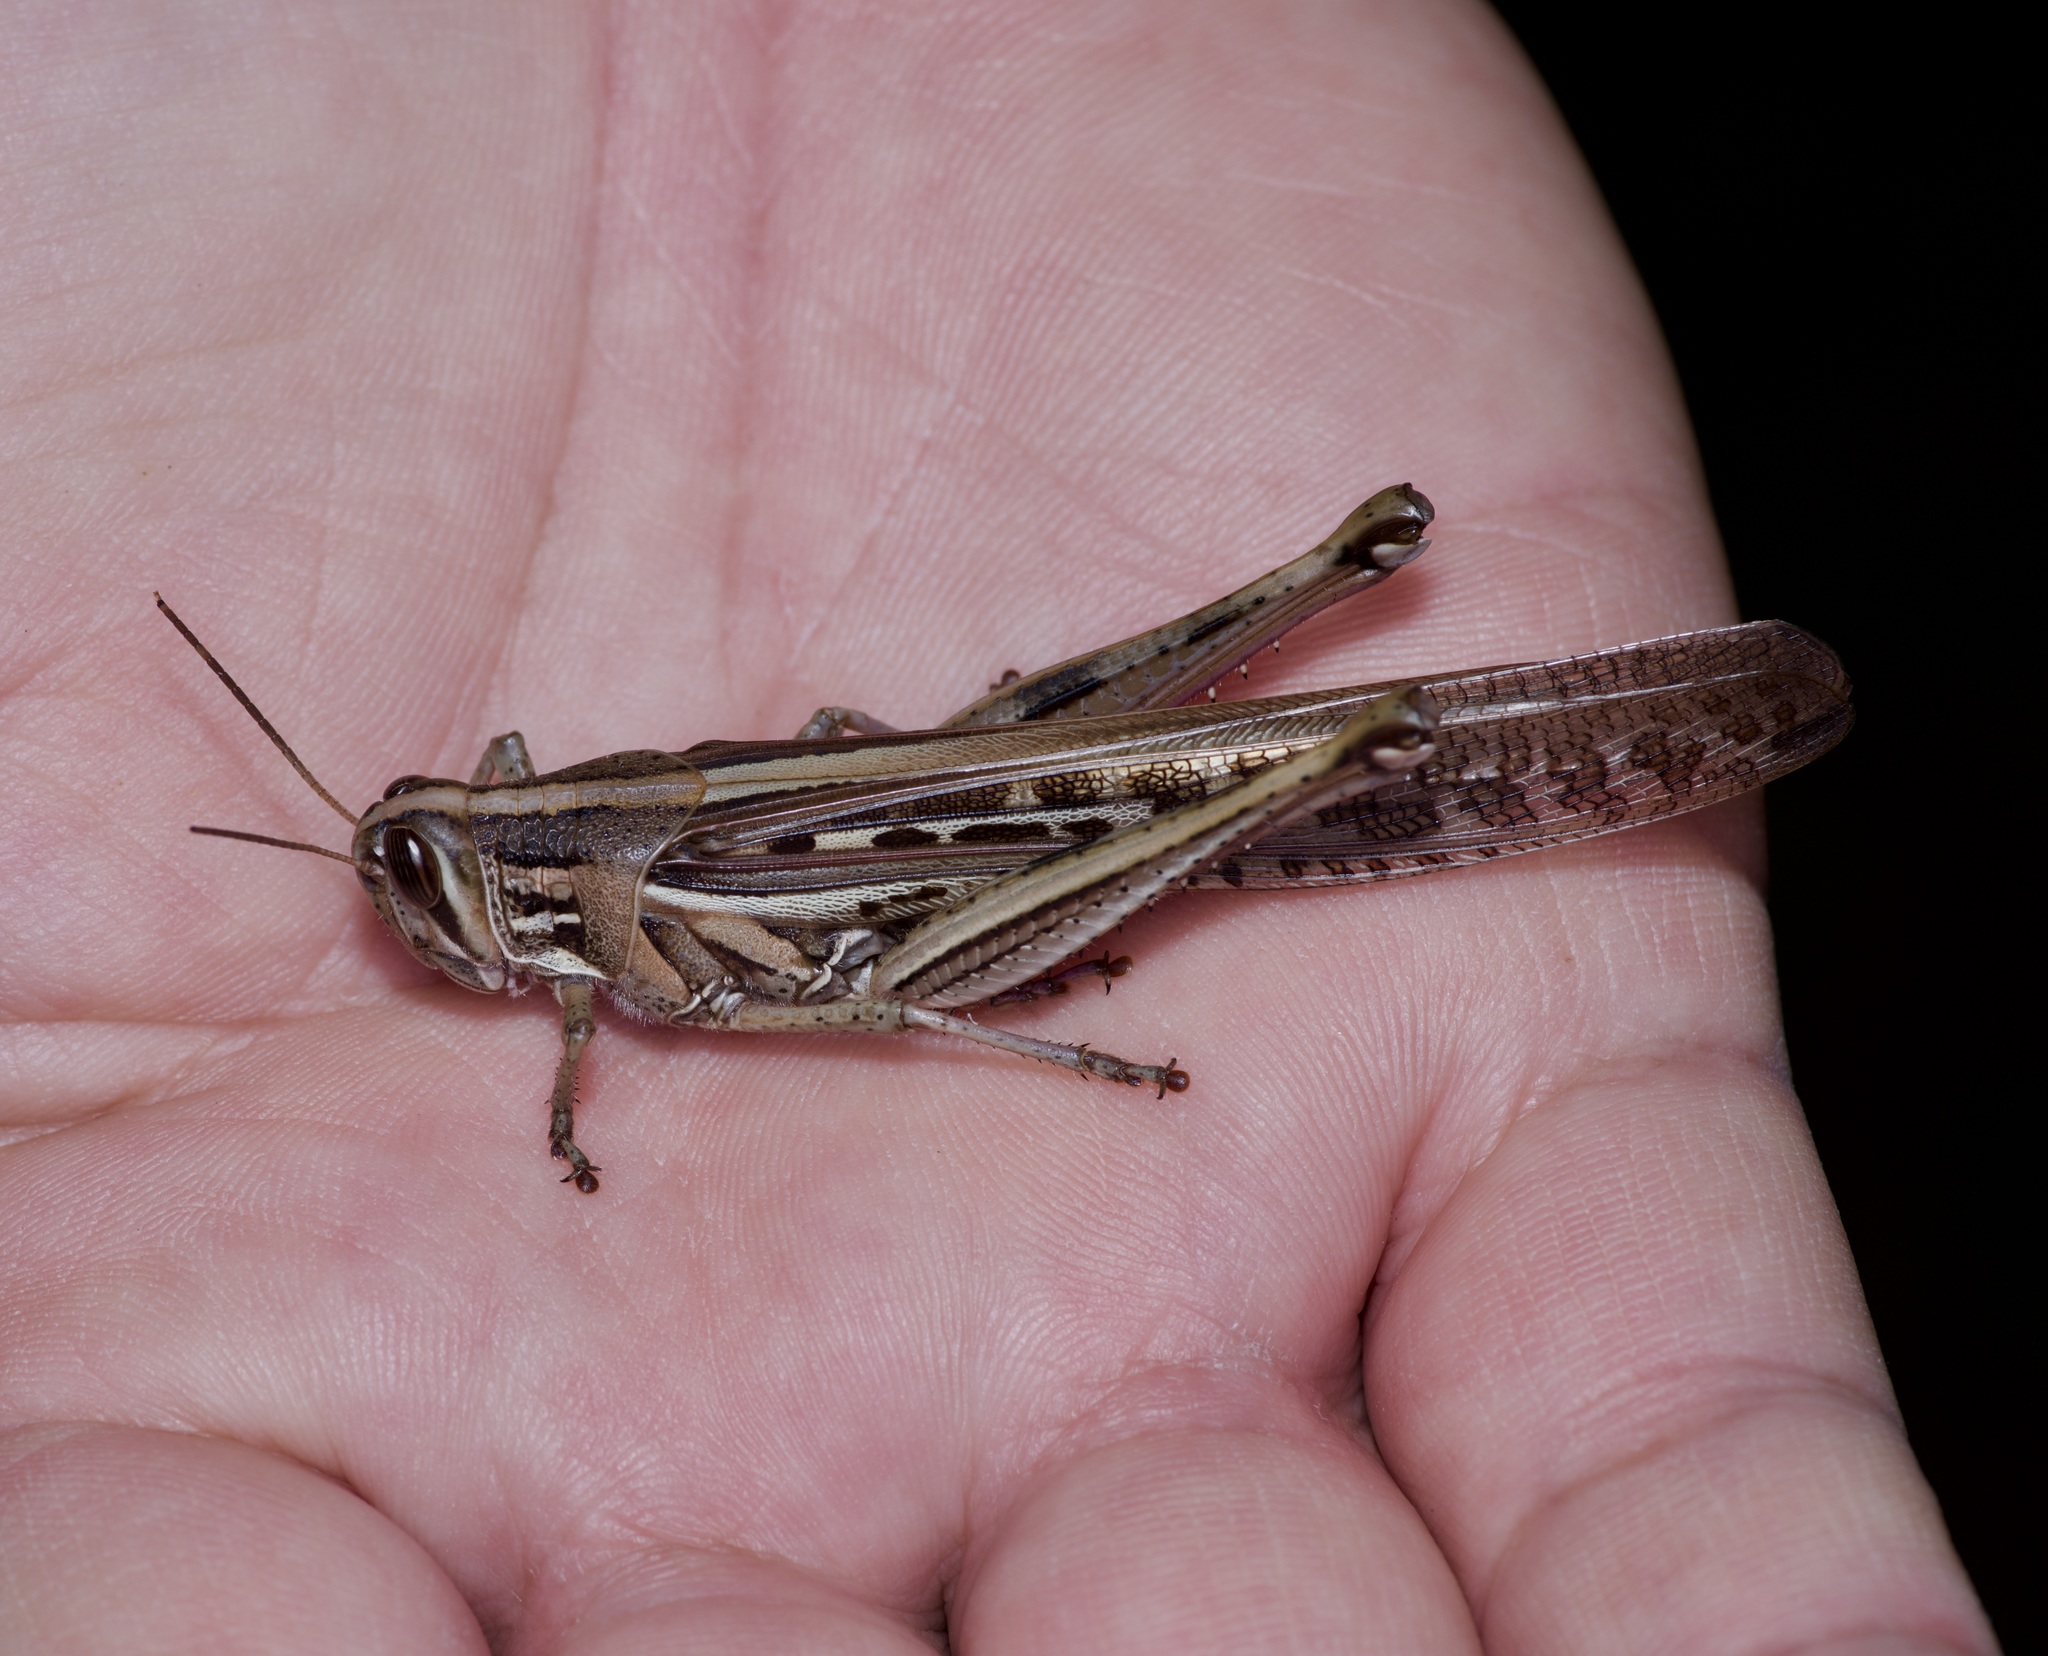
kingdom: Animalia
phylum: Arthropoda
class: Insecta
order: Orthoptera
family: Acrididae
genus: Schistocerca
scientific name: Schistocerca americana
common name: American bird locust
